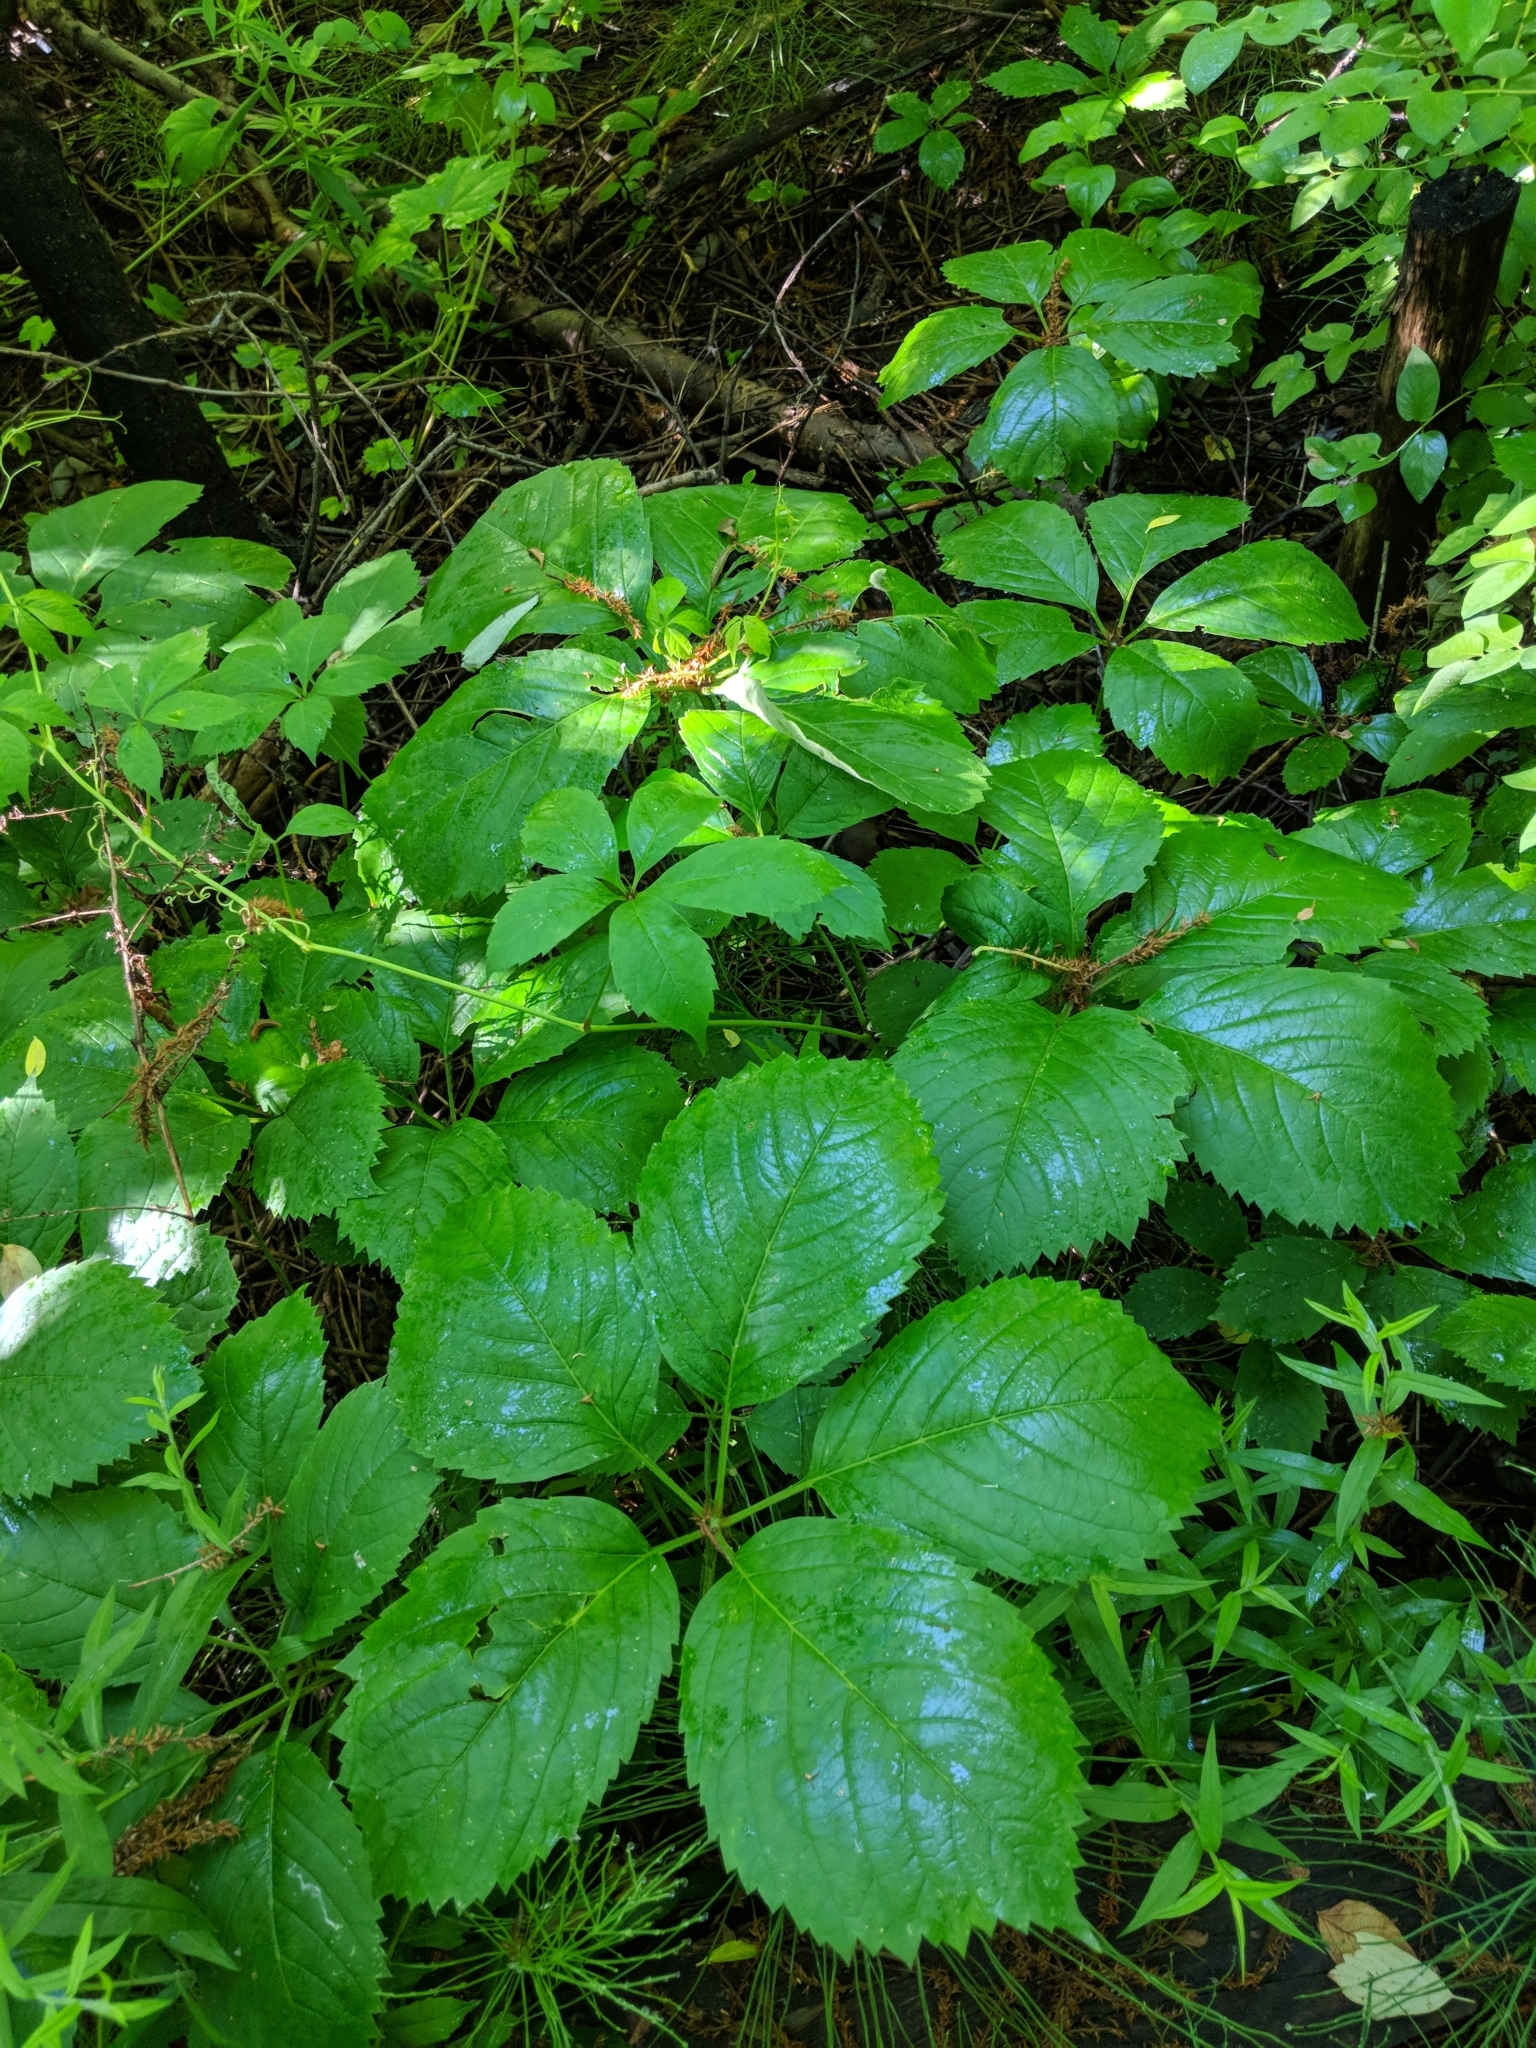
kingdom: Plantae
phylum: Tracheophyta
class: Magnoliopsida
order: Vitales
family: Vitaceae
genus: Parthenocissus
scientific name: Parthenocissus inserta
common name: False virginia-creeper
